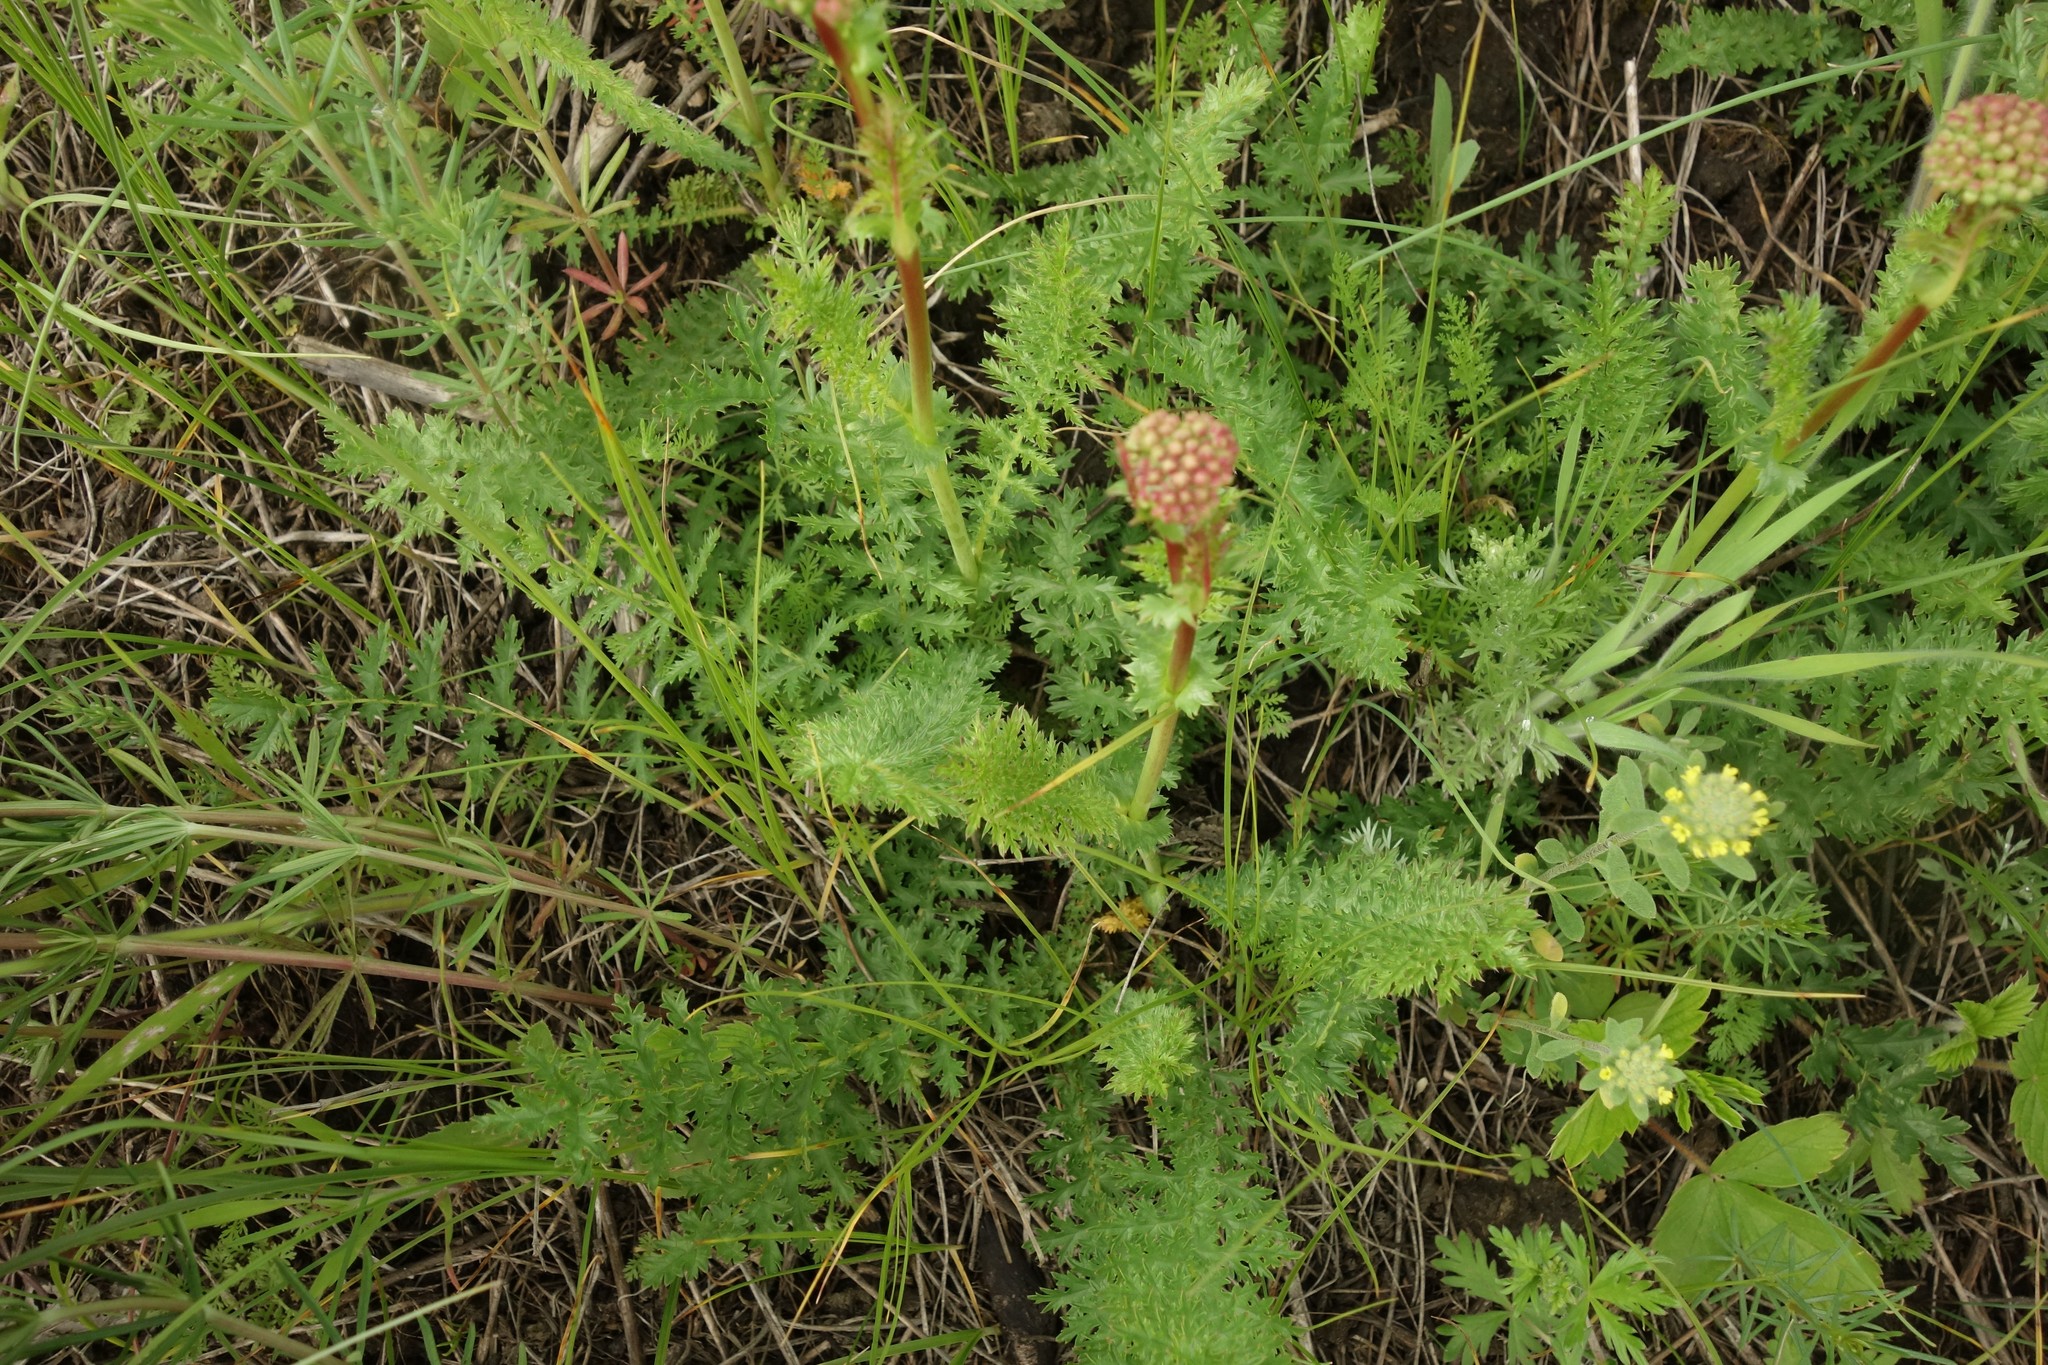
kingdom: Plantae
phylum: Tracheophyta
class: Magnoliopsida
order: Rosales
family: Rosaceae
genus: Filipendula
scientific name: Filipendula vulgaris
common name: Dropwort
